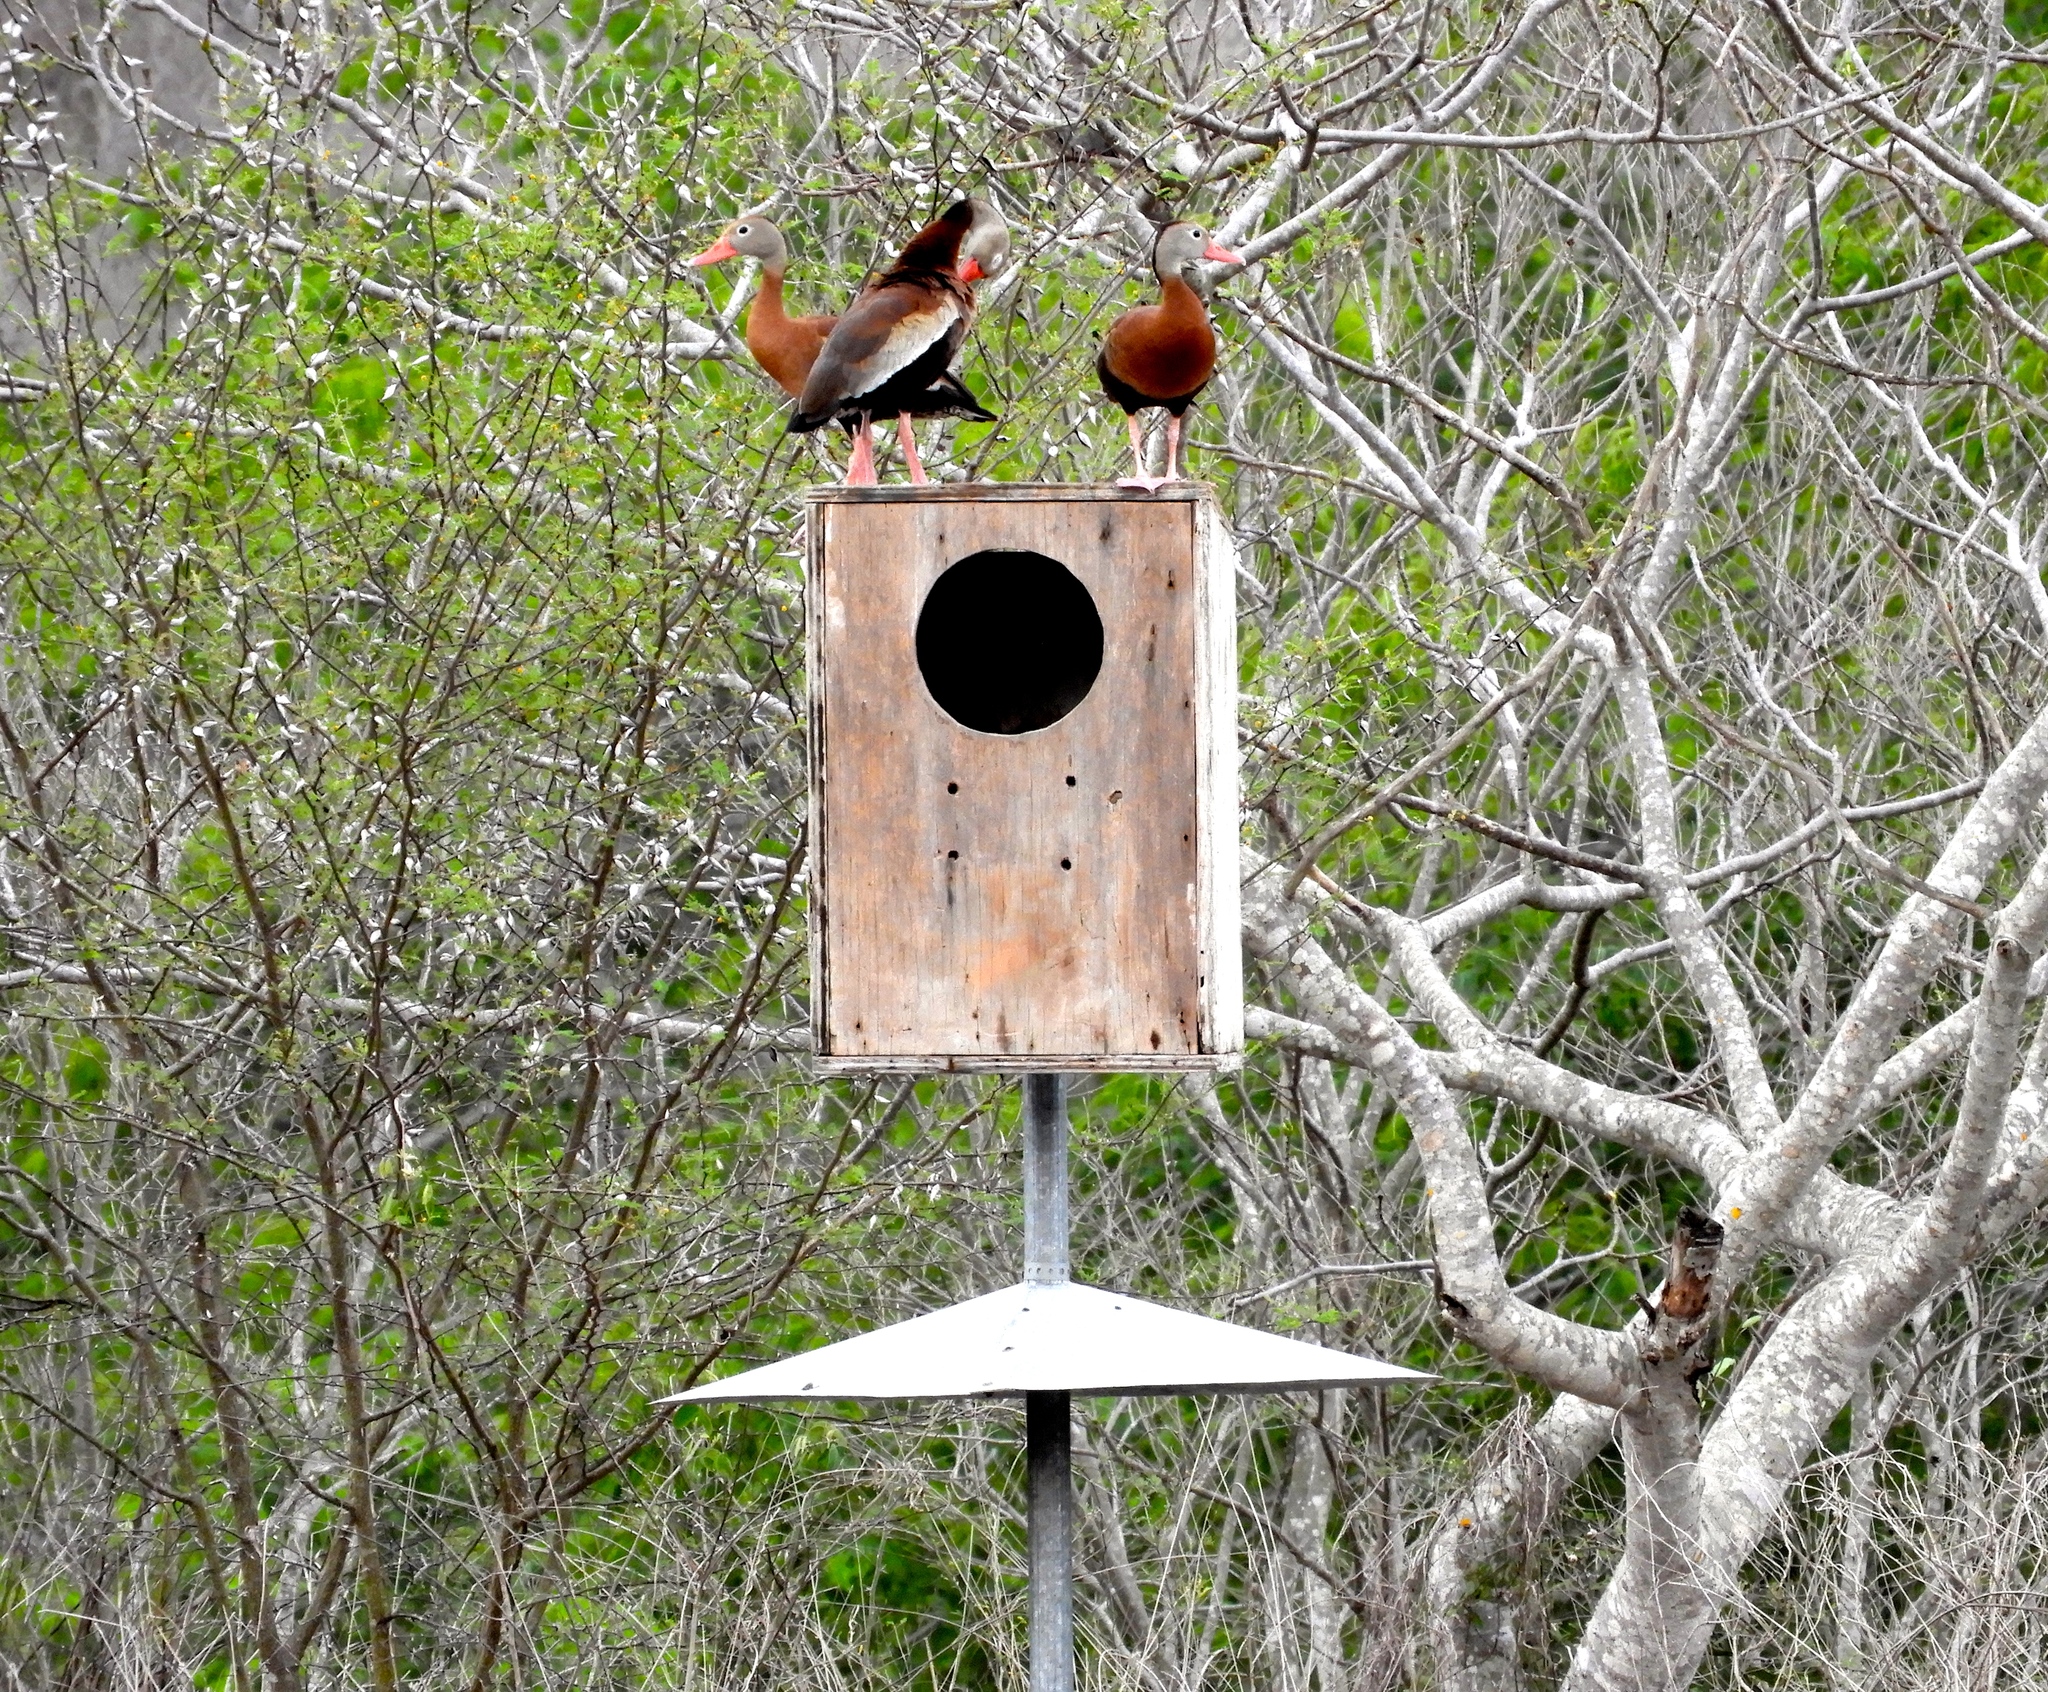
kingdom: Animalia
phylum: Chordata
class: Aves
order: Anseriformes
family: Anatidae
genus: Dendrocygna
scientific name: Dendrocygna autumnalis
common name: Black-bellied whistling duck
